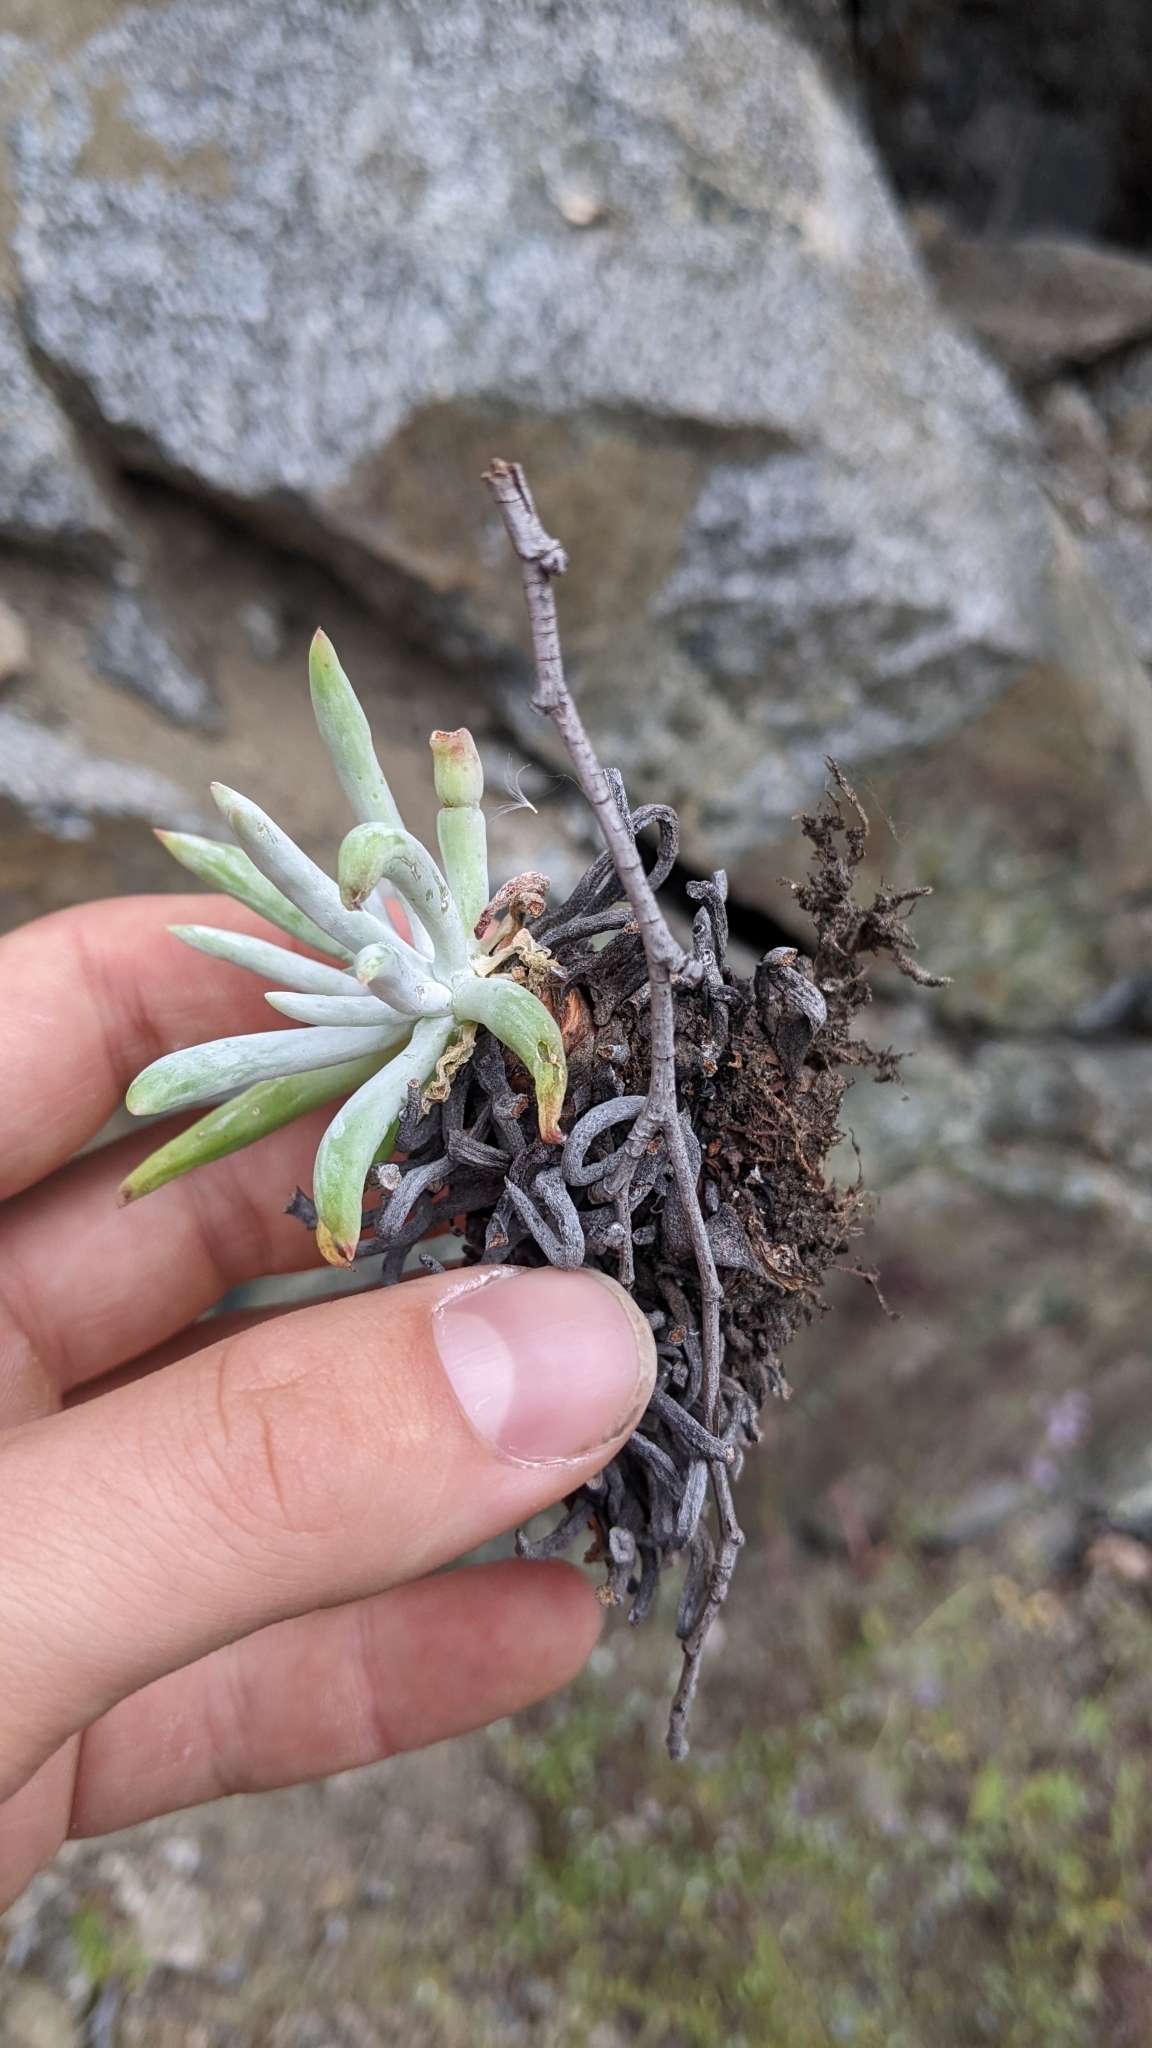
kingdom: Plantae
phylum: Tracheophyta
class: Magnoliopsida
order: Saxifragales
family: Crassulaceae
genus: Dudleya
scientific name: Dudleya densiflora
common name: San gabriel mountains dudleya
